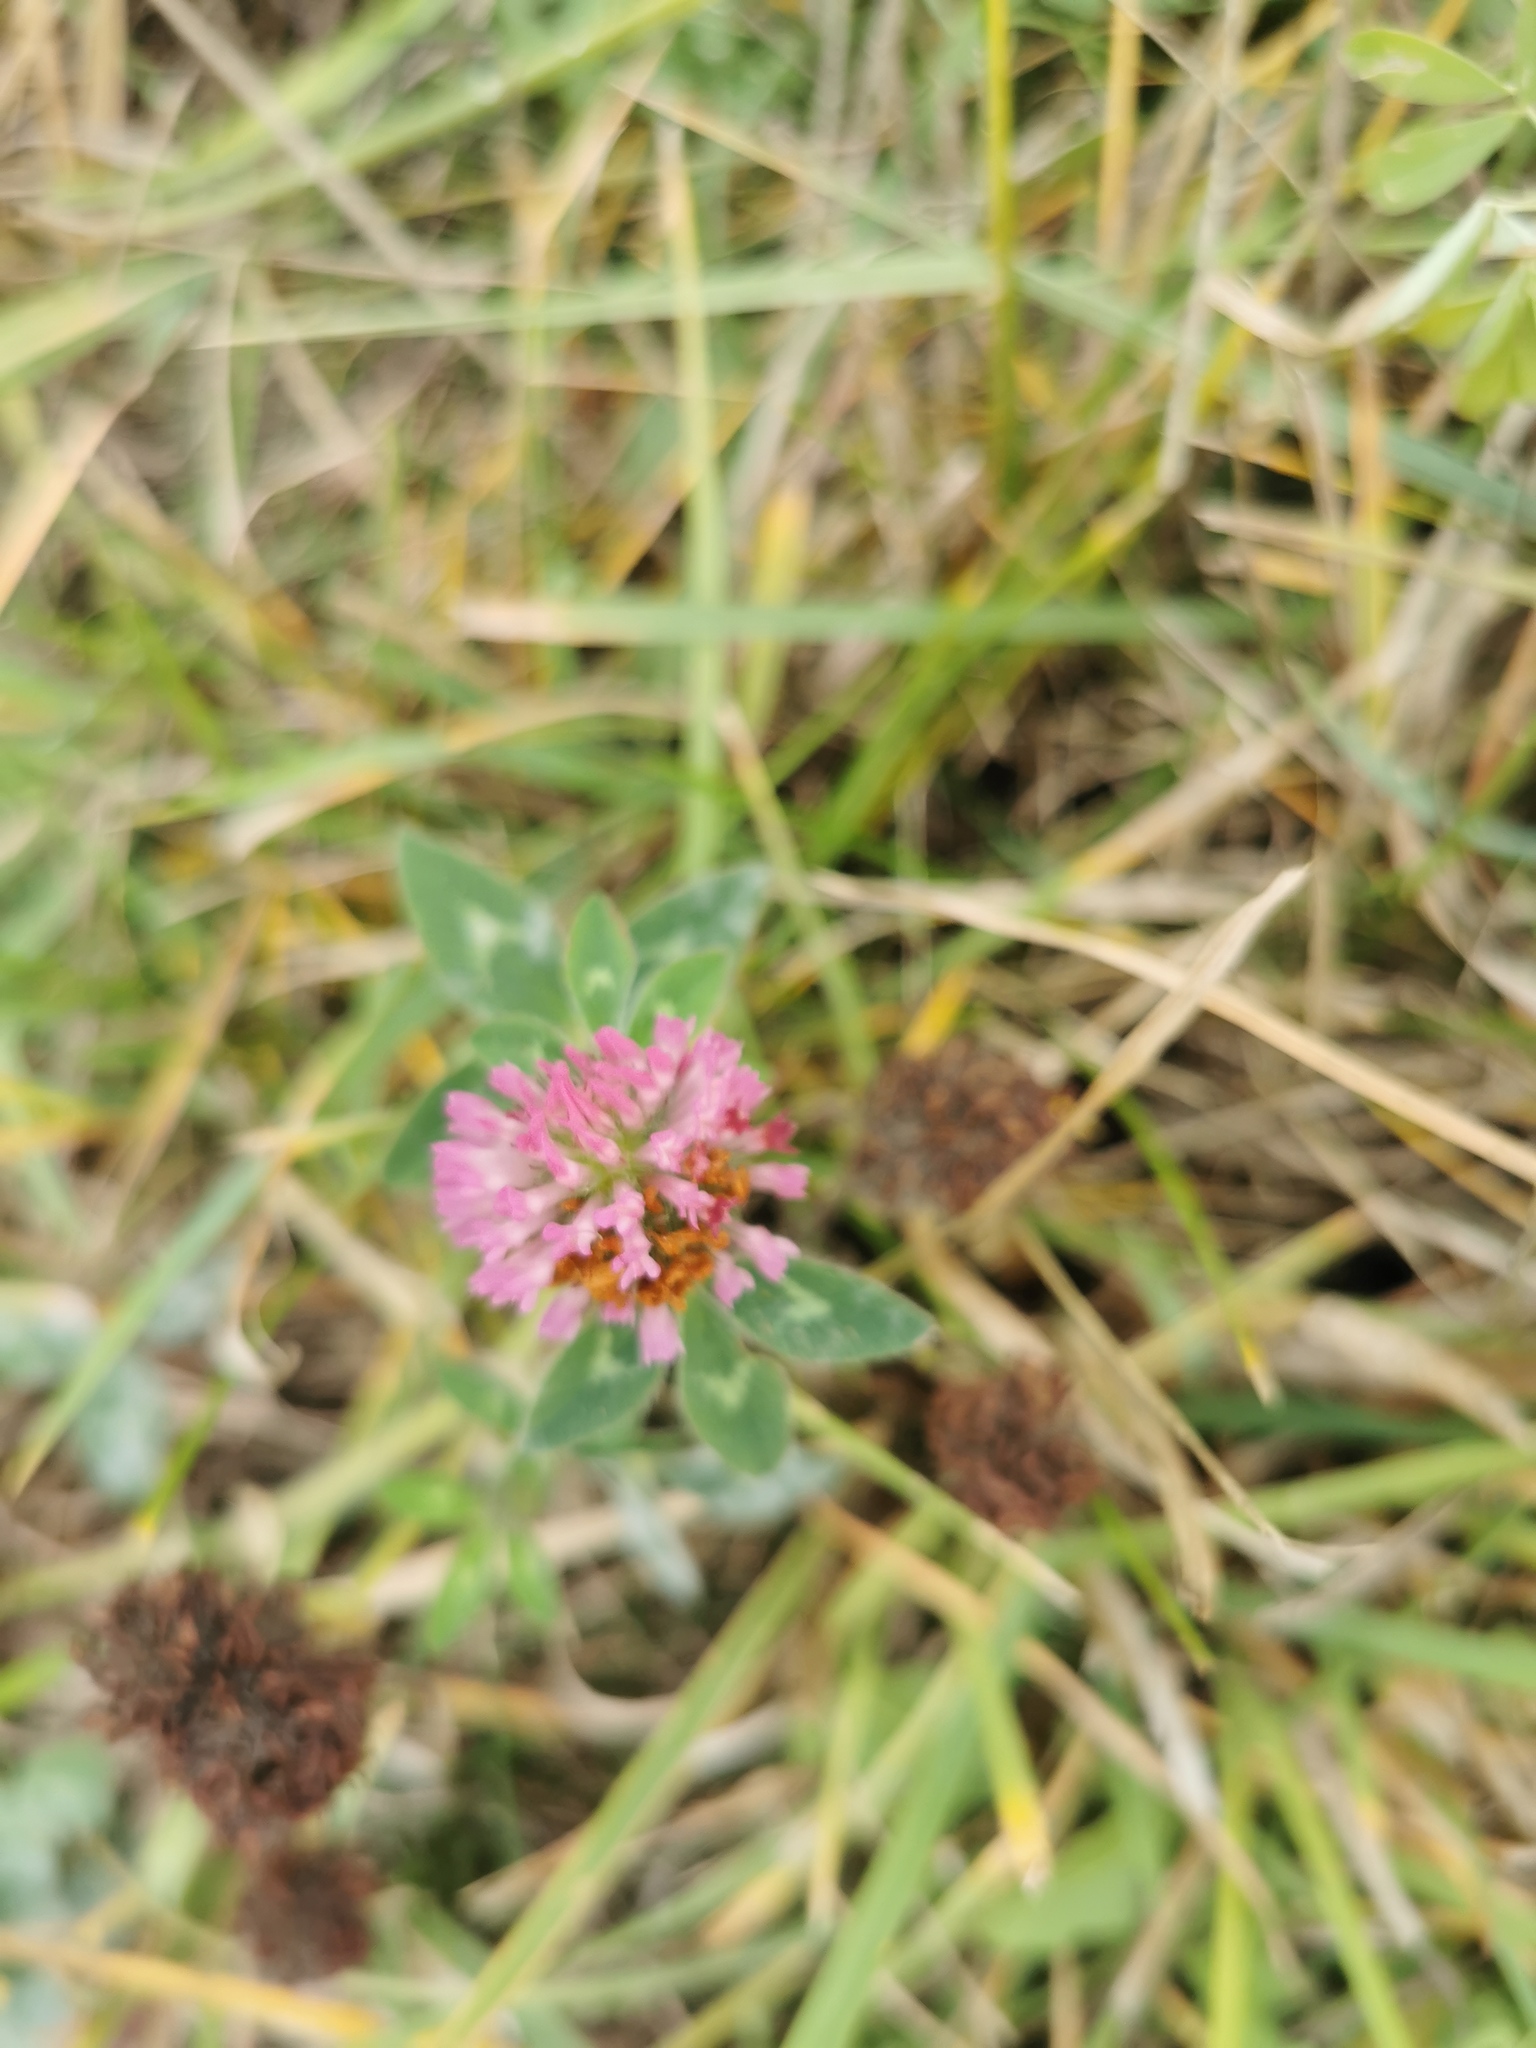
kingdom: Plantae
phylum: Tracheophyta
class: Magnoliopsida
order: Fabales
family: Fabaceae
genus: Trifolium
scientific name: Trifolium pratense
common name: Red clover
